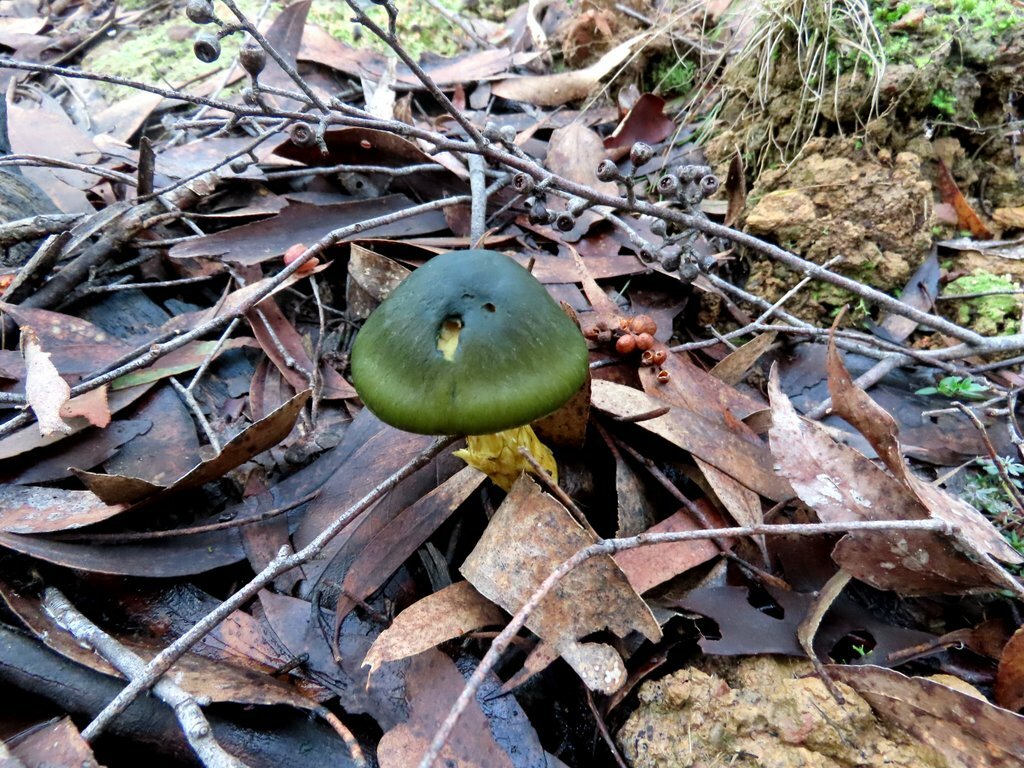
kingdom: Fungi
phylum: Basidiomycota
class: Agaricomycetes
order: Agaricales
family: Cortinariaceae
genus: Cortinarius
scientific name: Cortinarius austrovenetus
